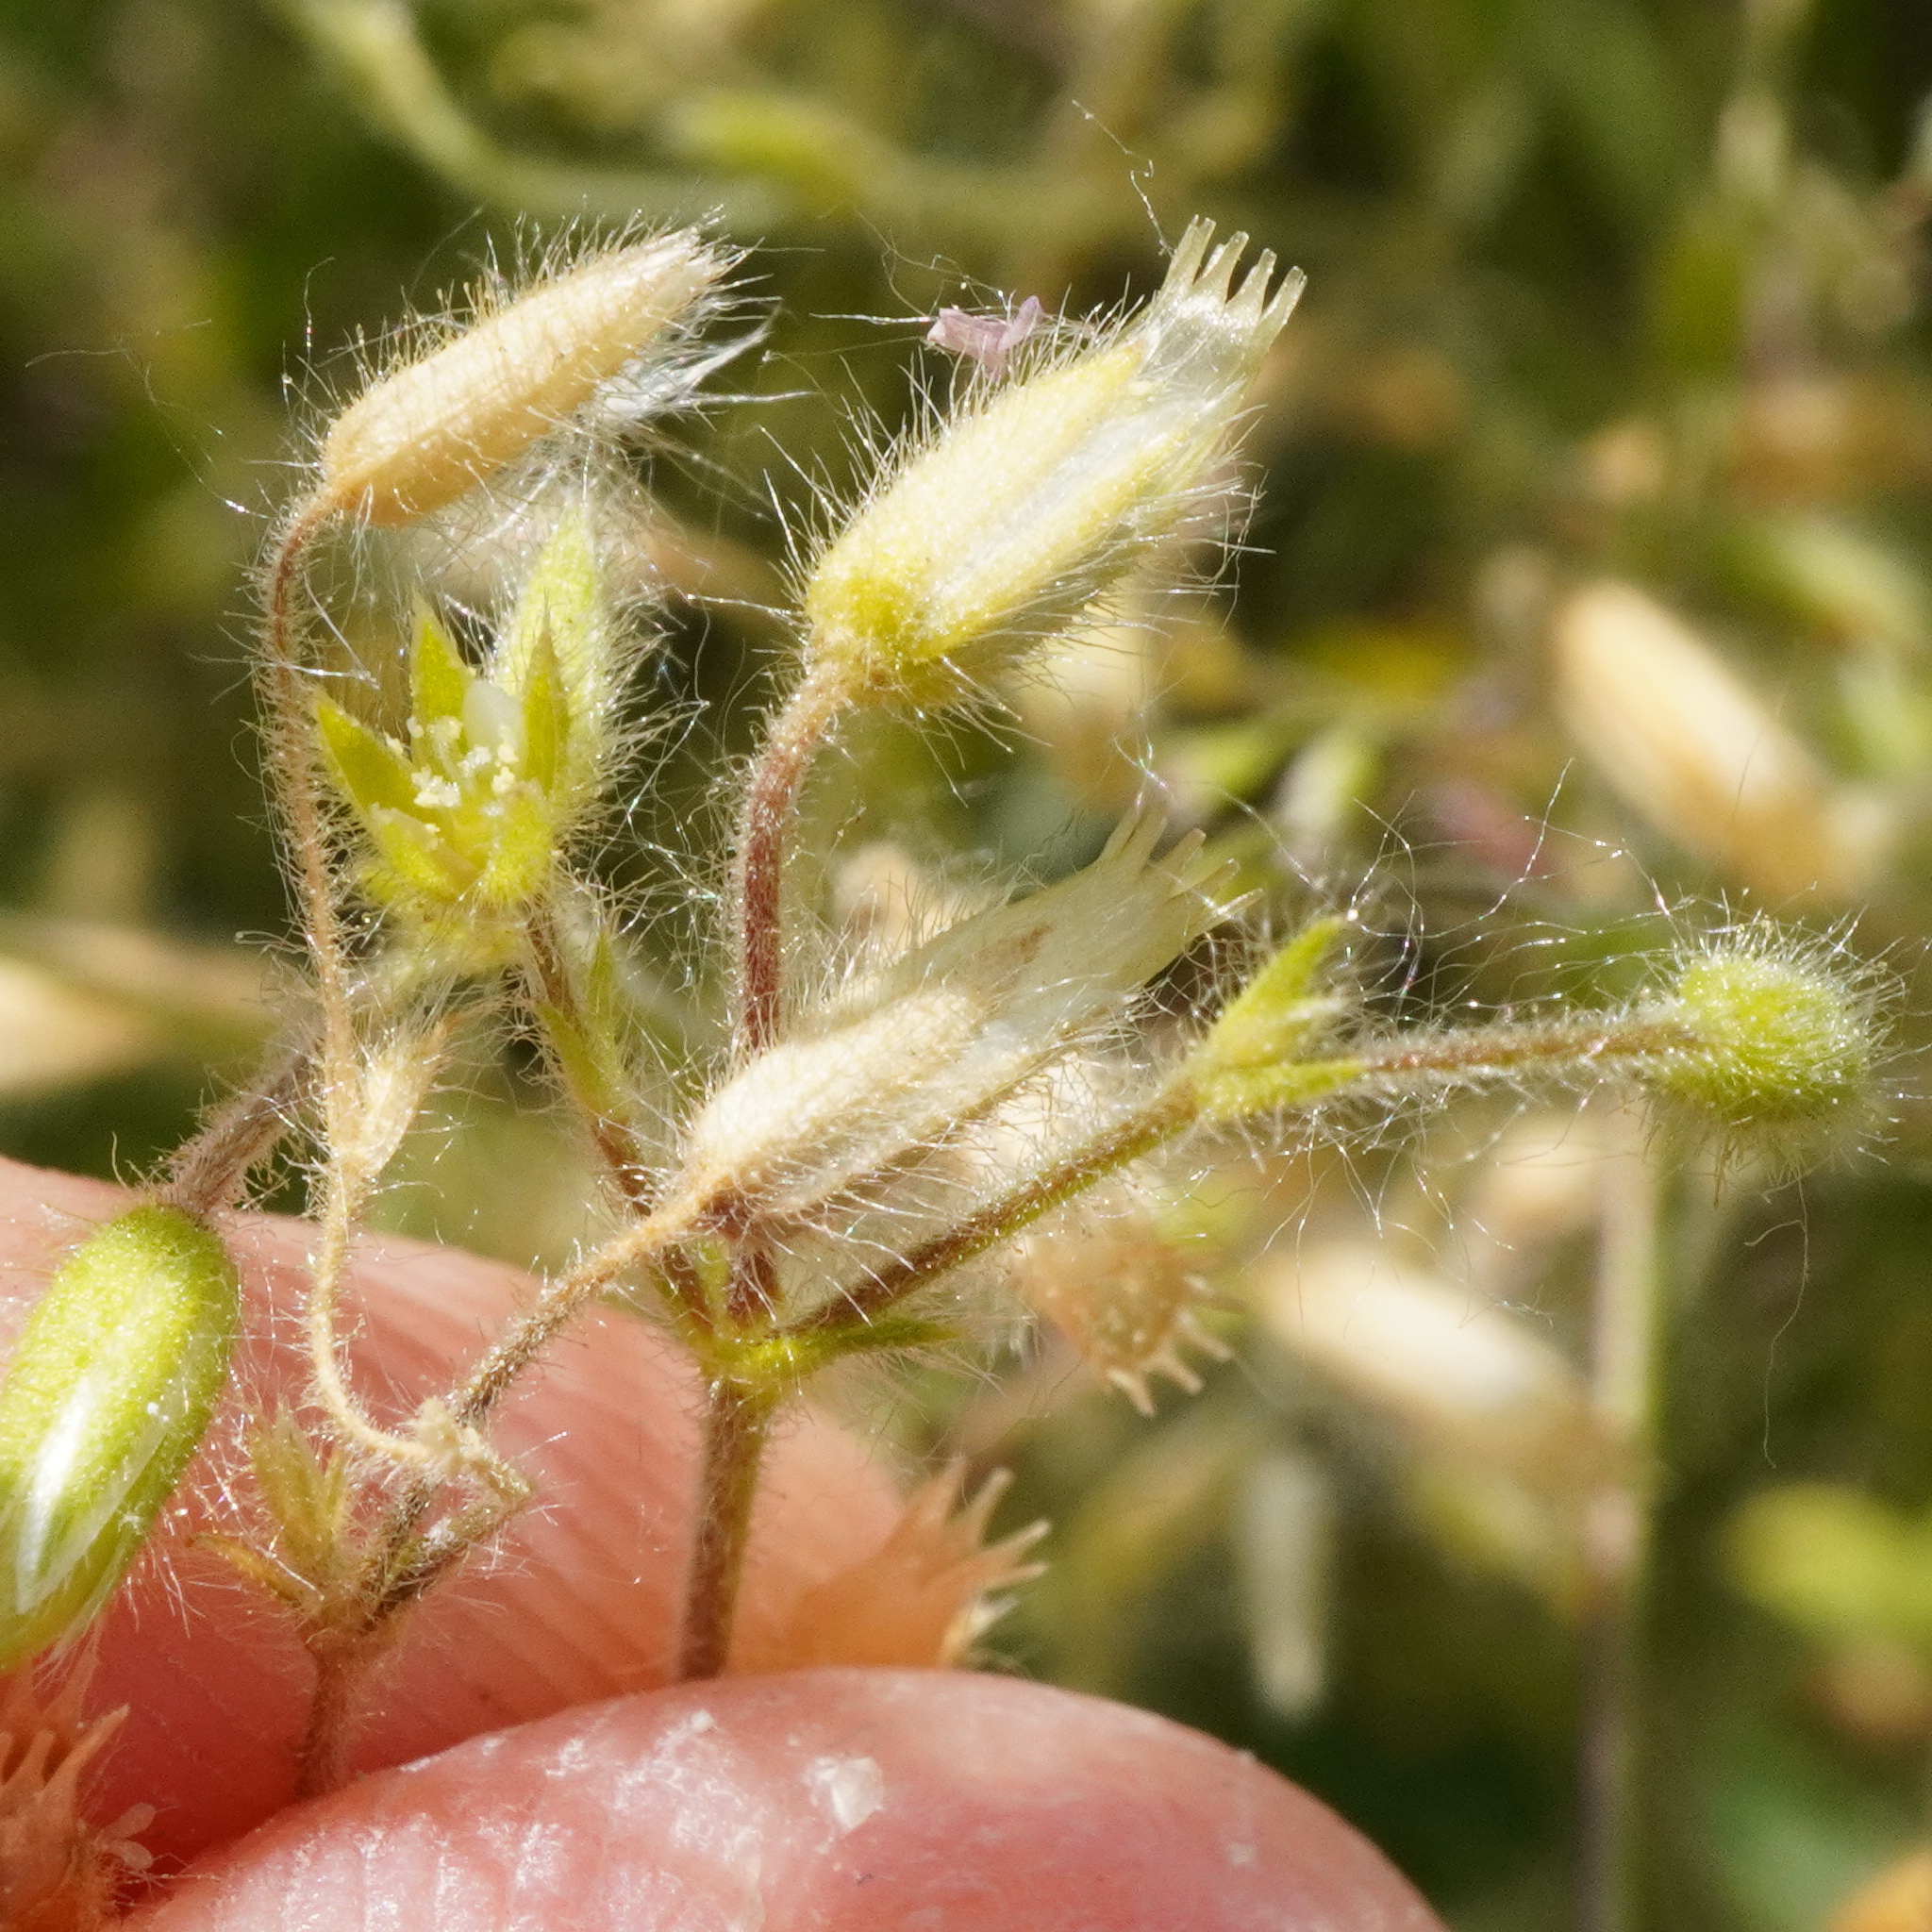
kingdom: Plantae
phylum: Tracheophyta
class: Magnoliopsida
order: Caryophyllales
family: Caryophyllaceae
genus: Cerastium
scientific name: Cerastium brachypetalum
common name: Grey mouse-ear
